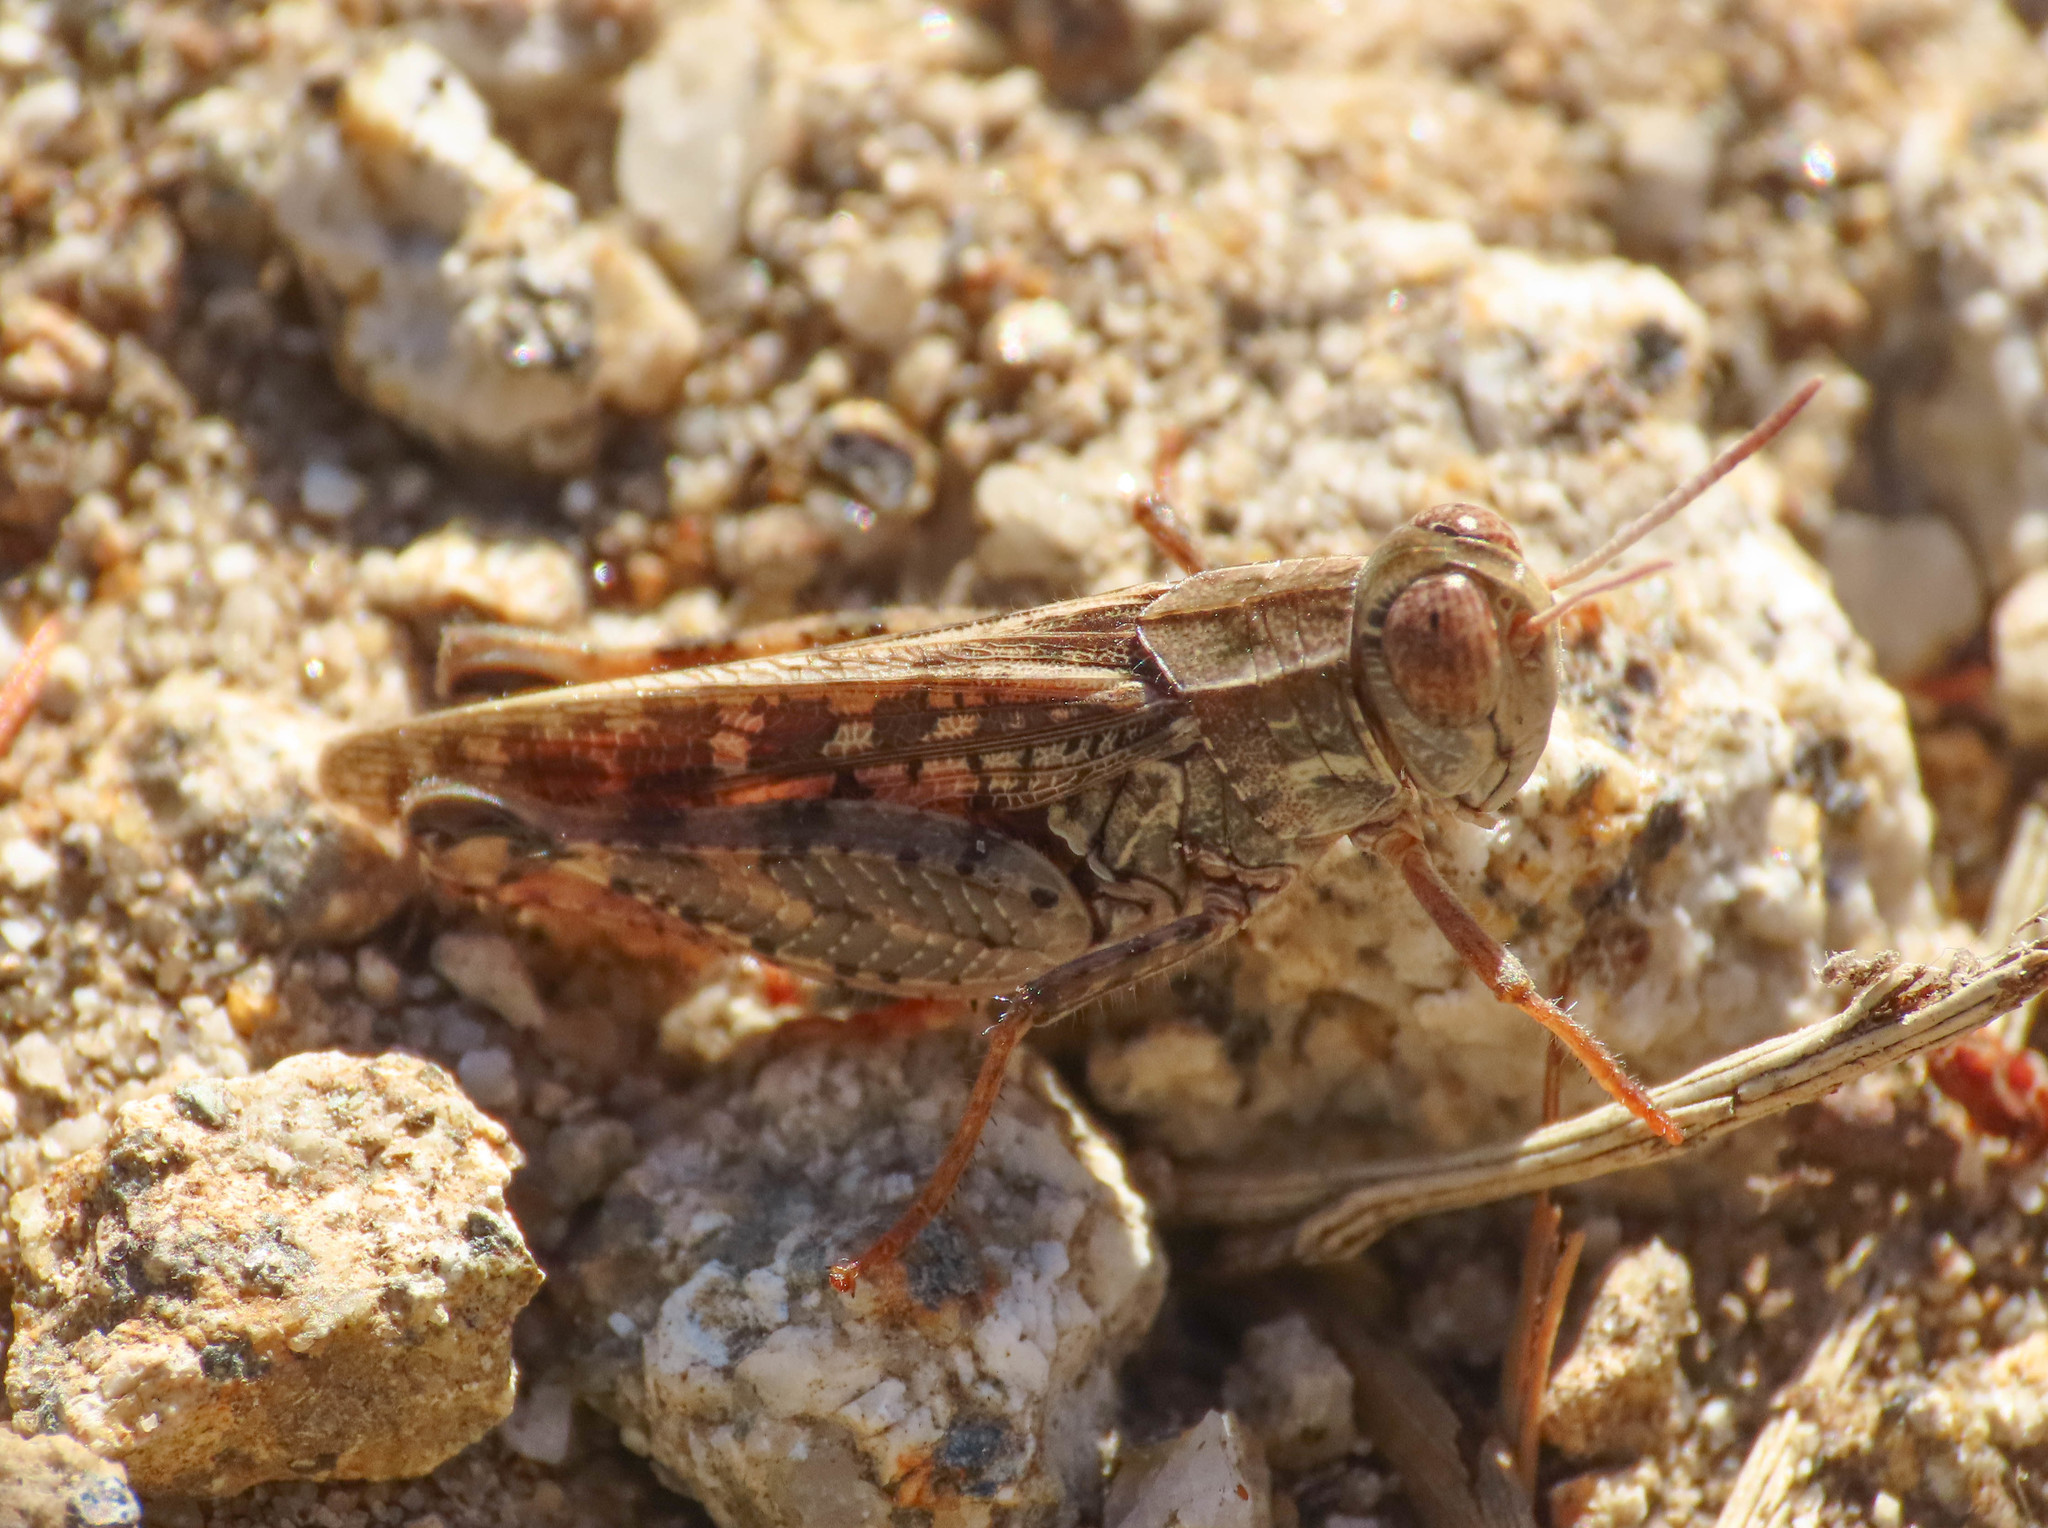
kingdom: Animalia
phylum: Arthropoda
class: Insecta
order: Orthoptera
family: Acrididae
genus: Calliptamus
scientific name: Calliptamus barbarus
